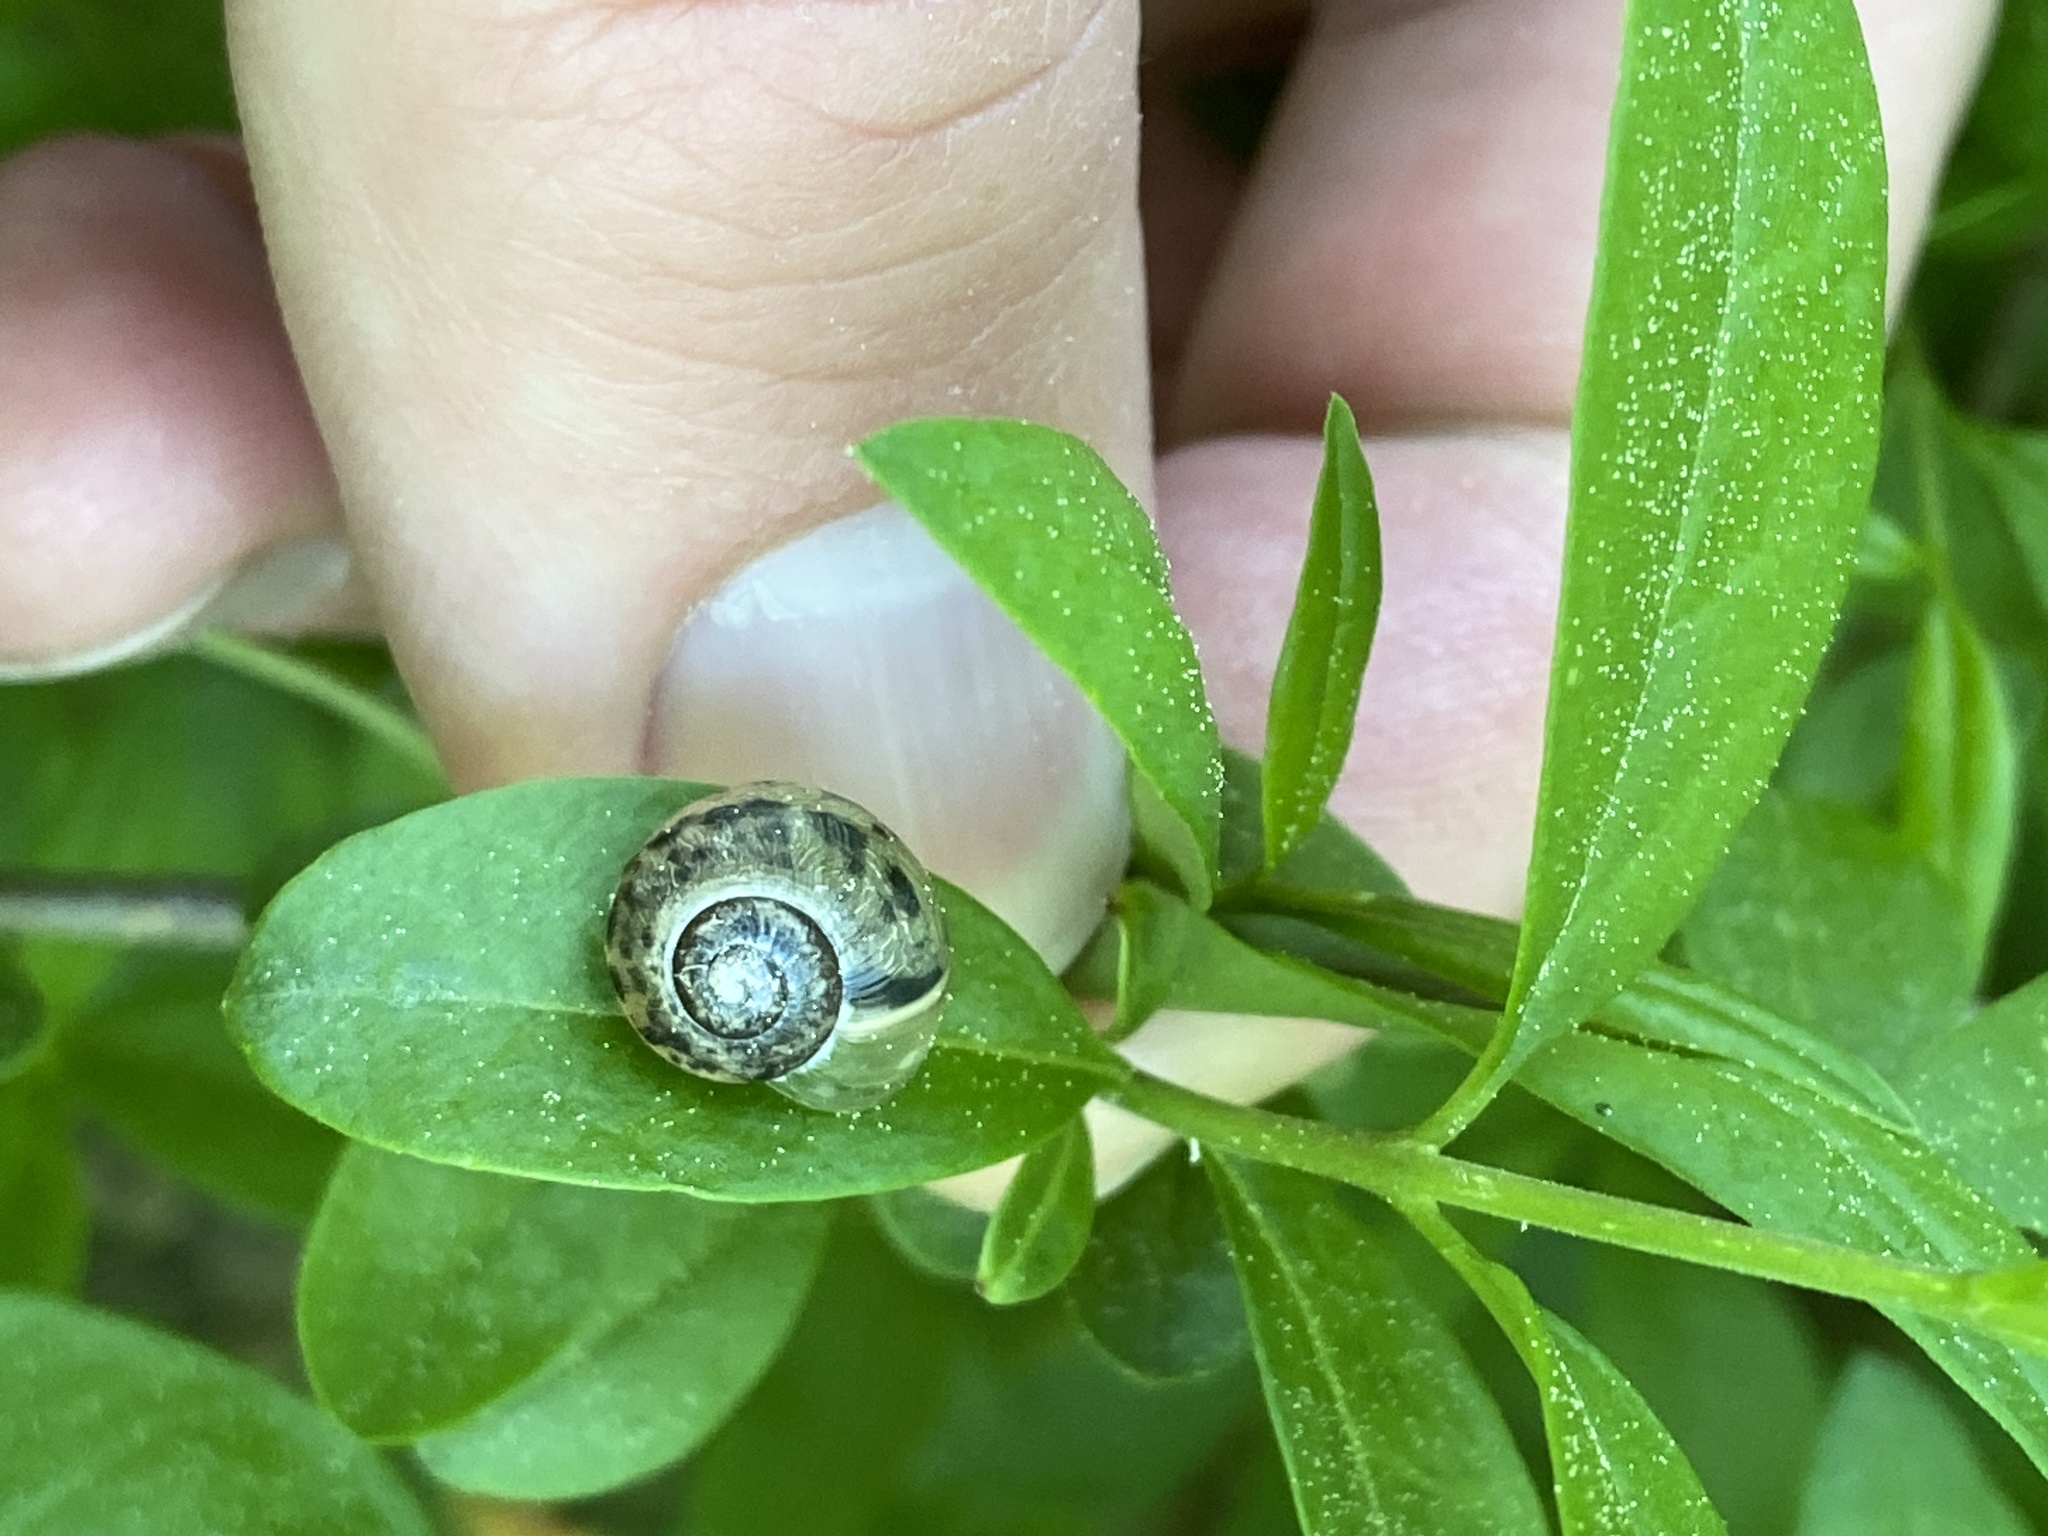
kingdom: Animalia
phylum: Mollusca
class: Gastropoda
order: Stylommatophora
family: Camaenidae
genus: Fruticicola
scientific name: Fruticicola fruticum
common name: Bush snail
